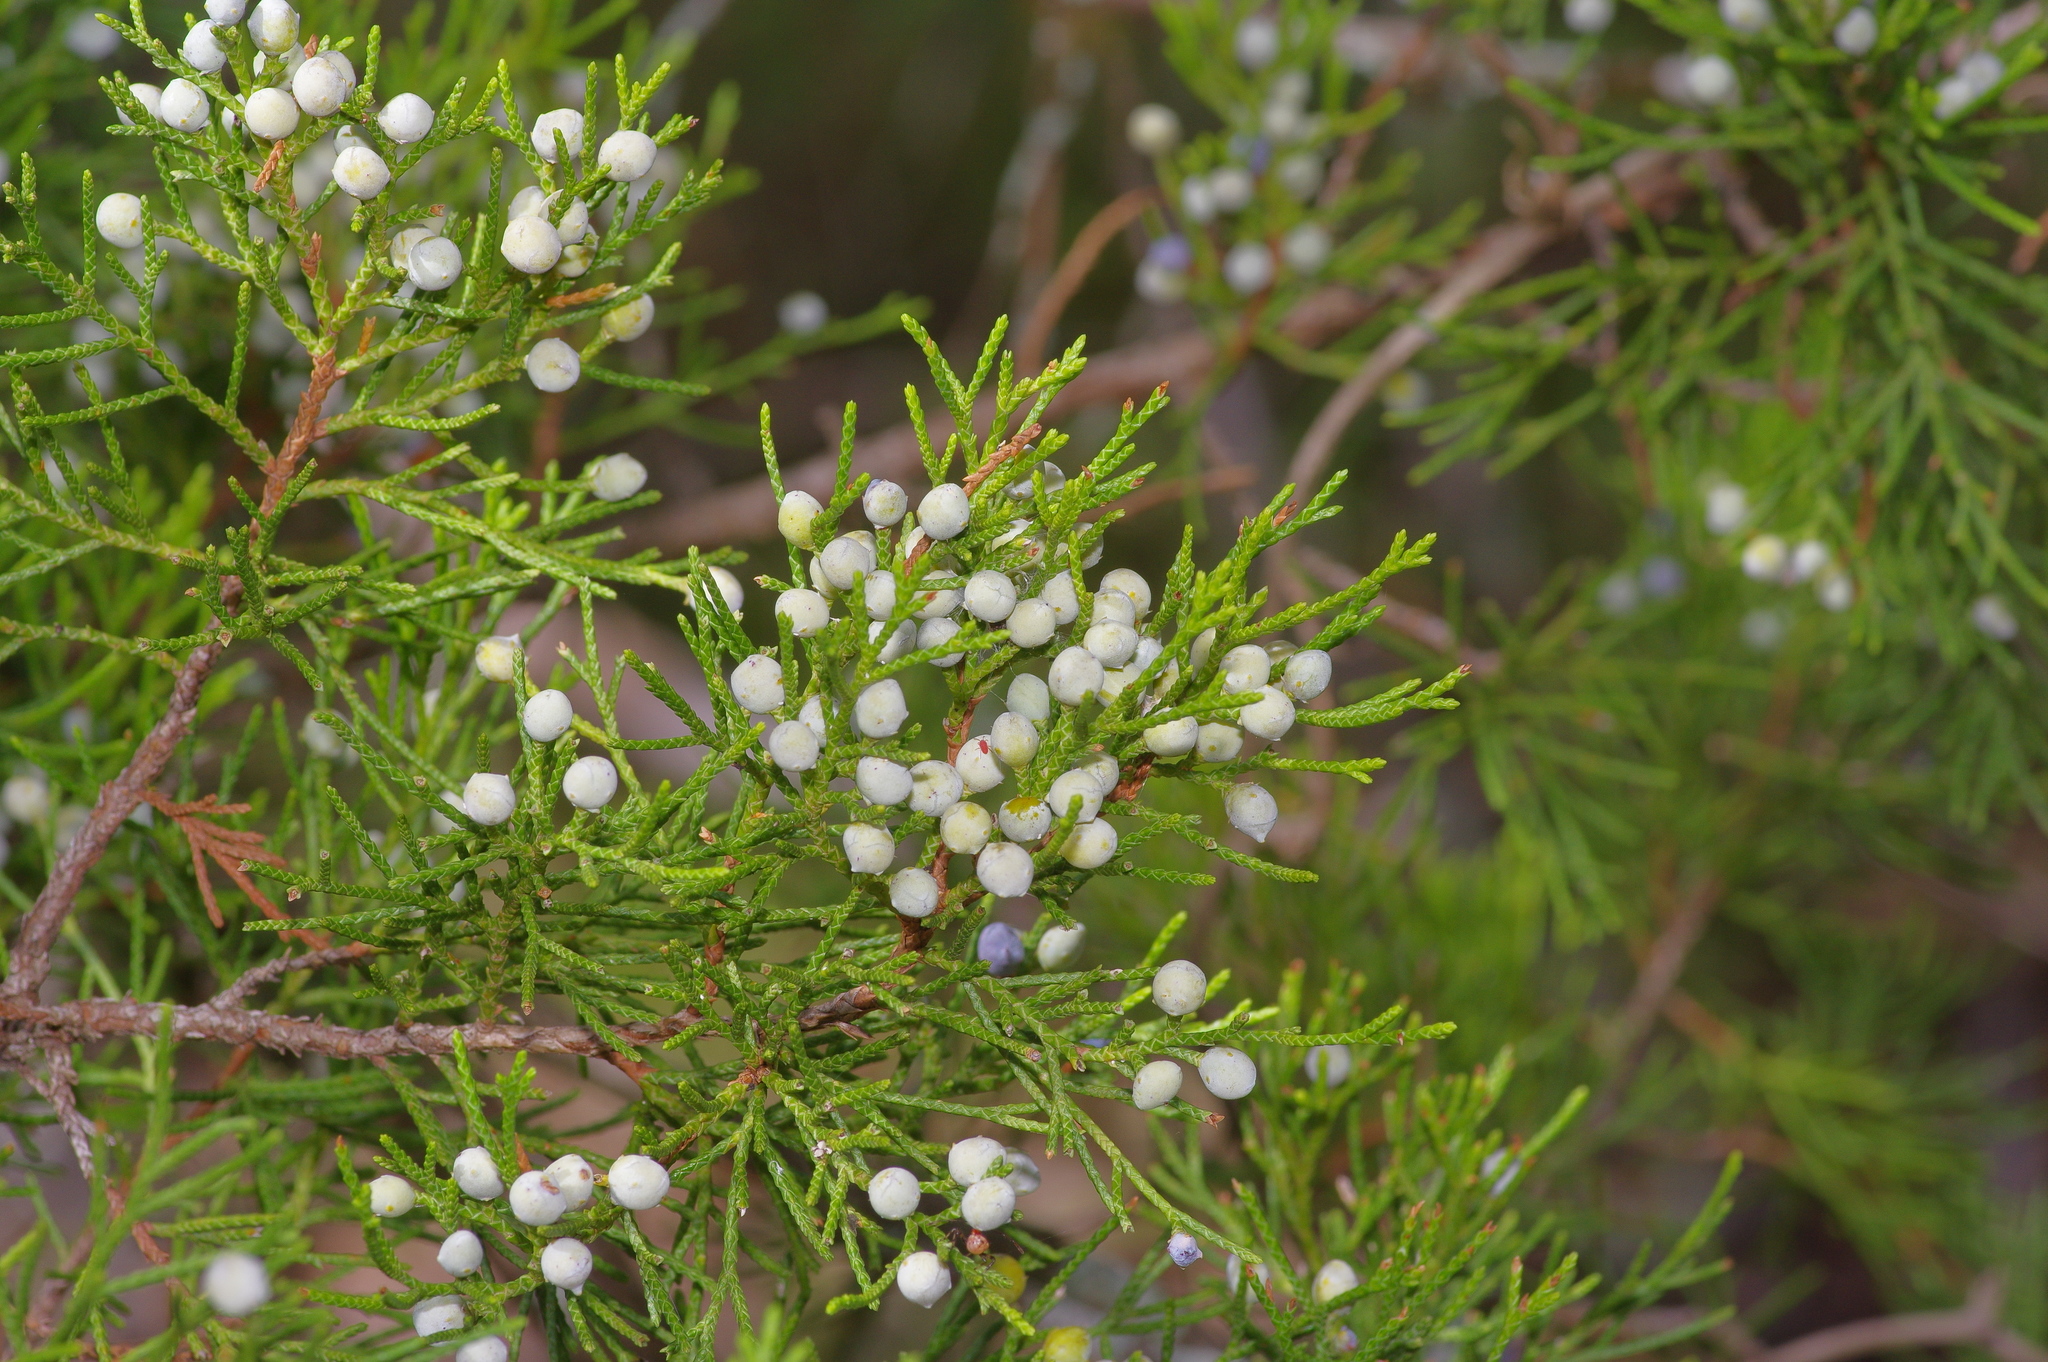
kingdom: Plantae
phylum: Tracheophyta
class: Pinopsida
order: Pinales
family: Cupressaceae
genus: Juniperus
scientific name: Juniperus virginiana
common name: Red juniper
